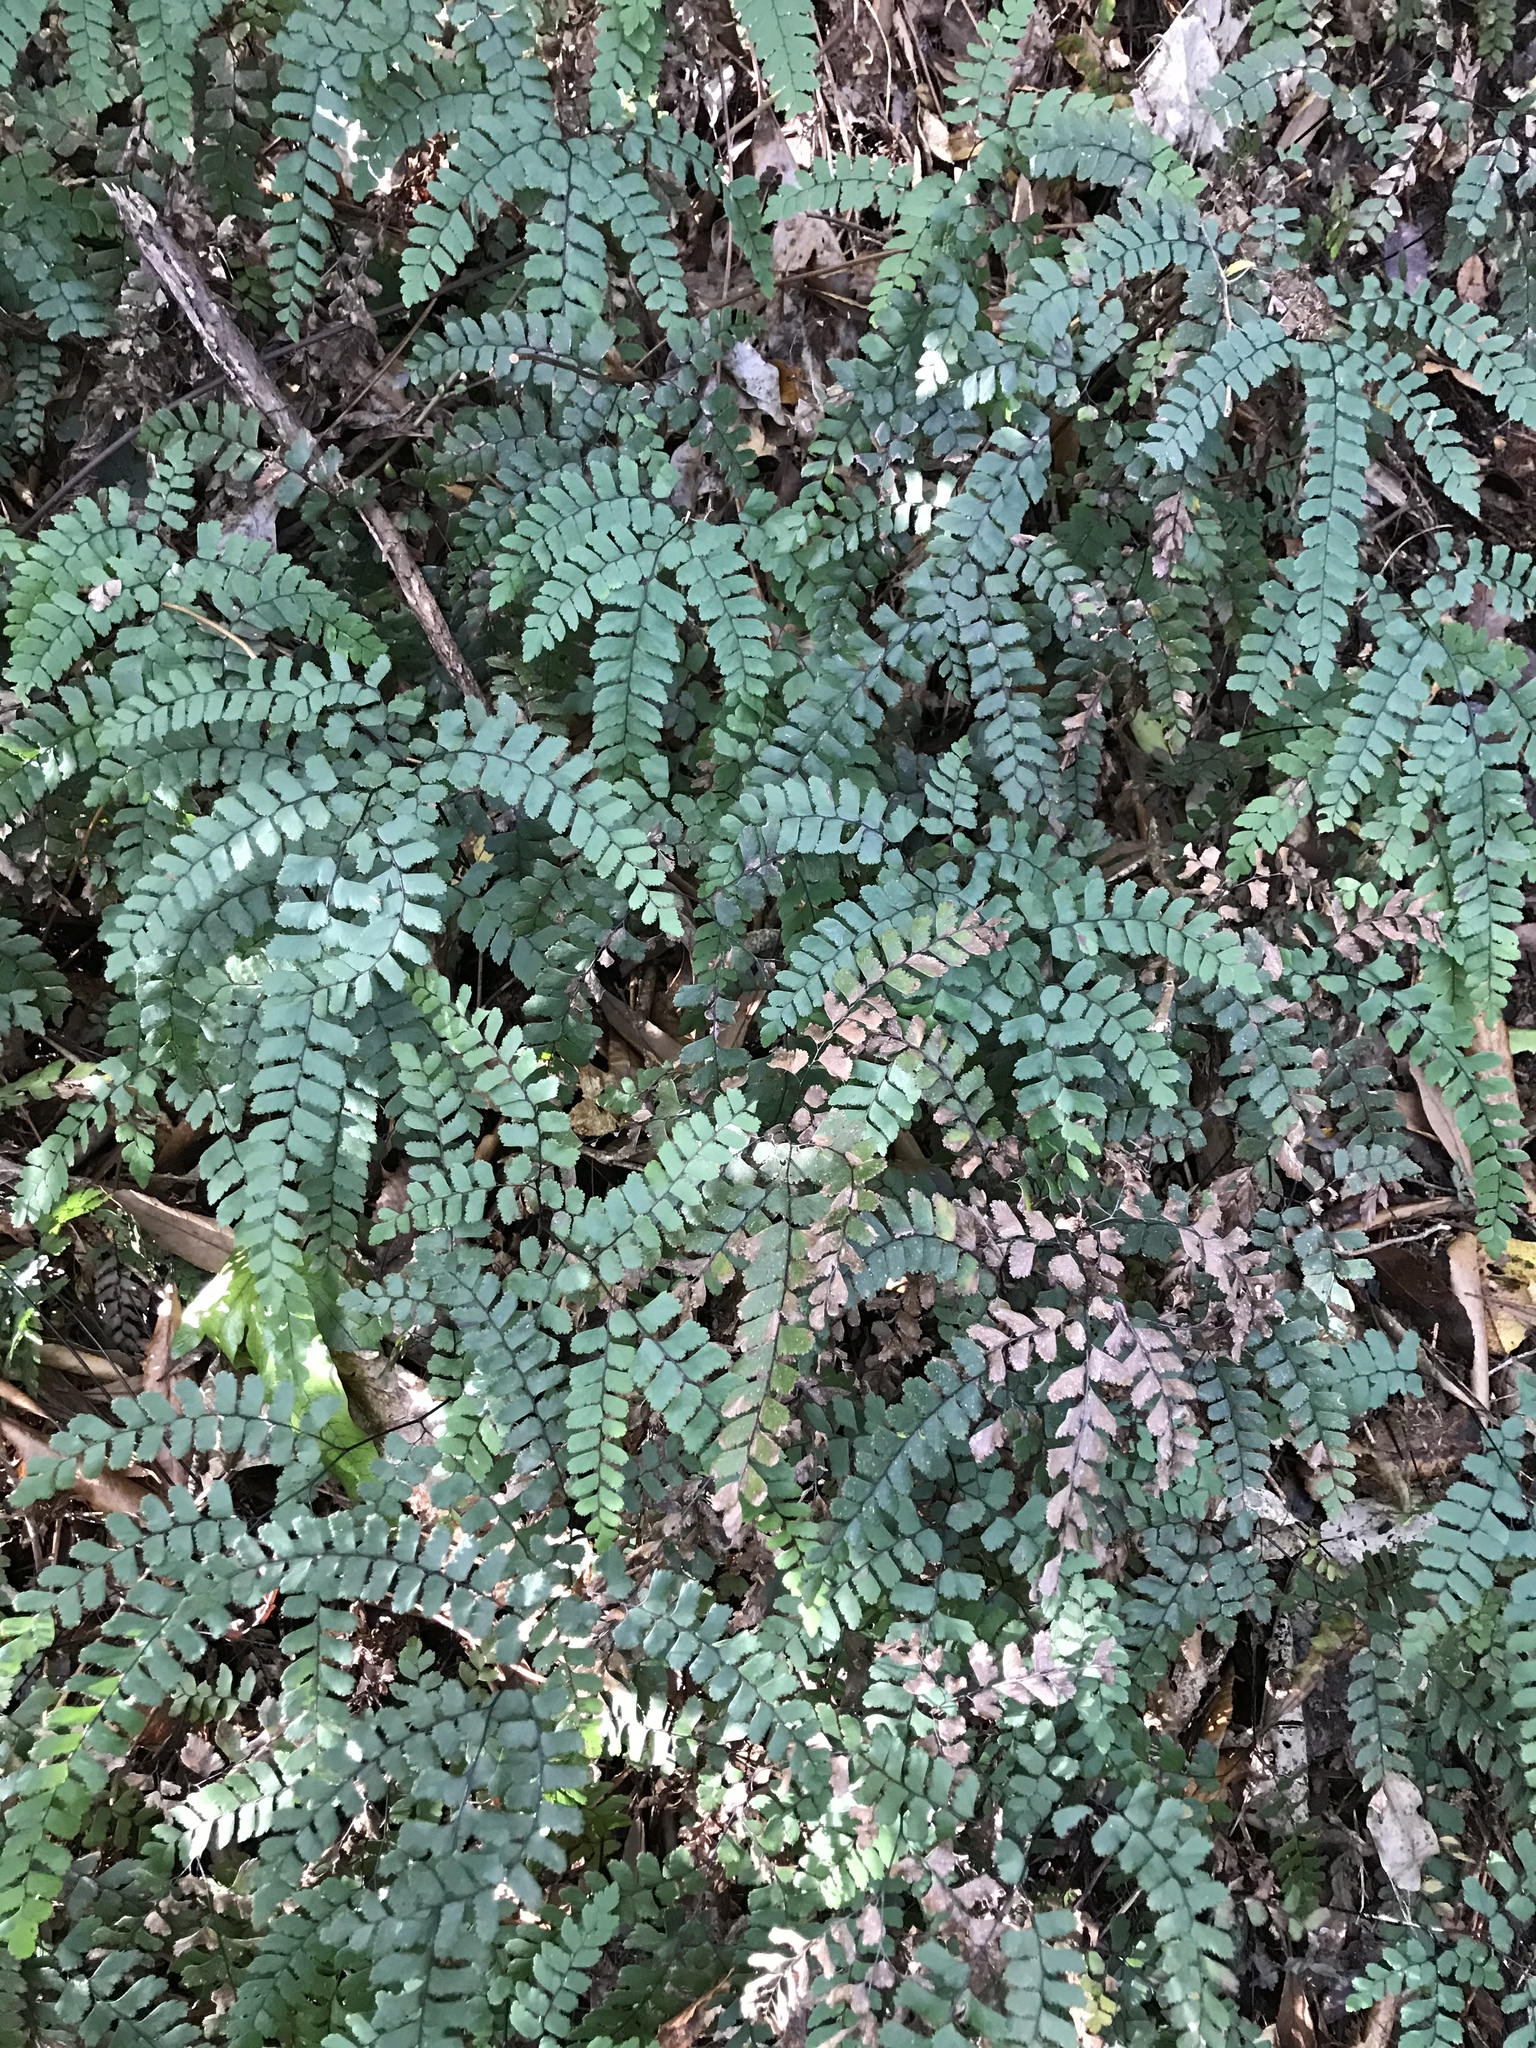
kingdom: Plantae
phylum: Tracheophyta
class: Polypodiopsida
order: Polypodiales
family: Pteridaceae
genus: Adiantum
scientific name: Adiantum cunninghamii
